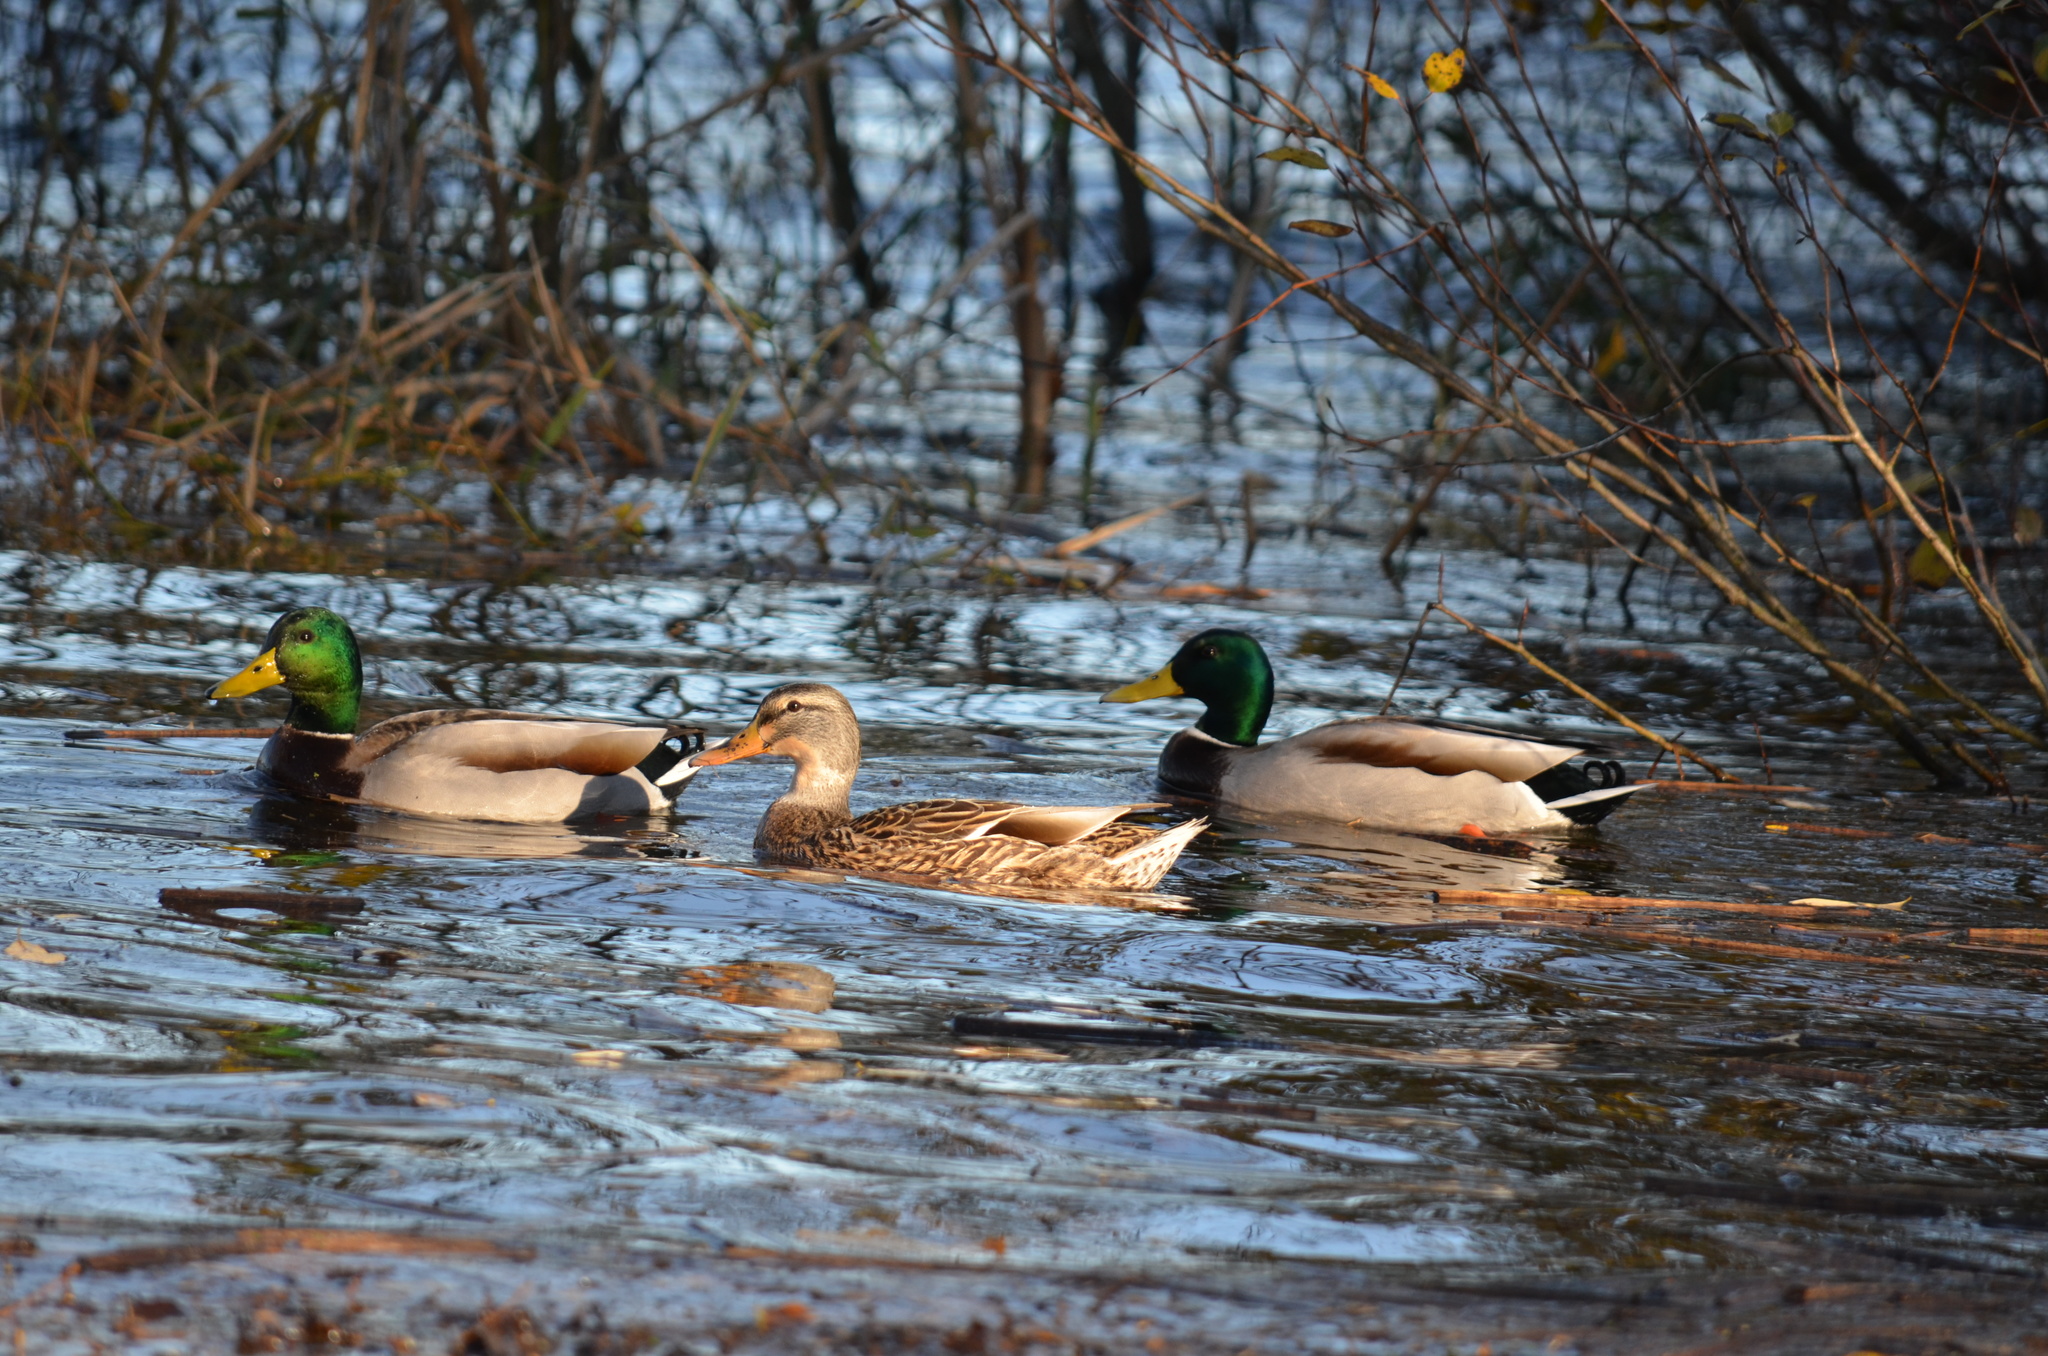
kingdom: Animalia
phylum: Chordata
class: Aves
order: Anseriformes
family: Anatidae
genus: Anas
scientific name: Anas platyrhynchos
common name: Mallard
